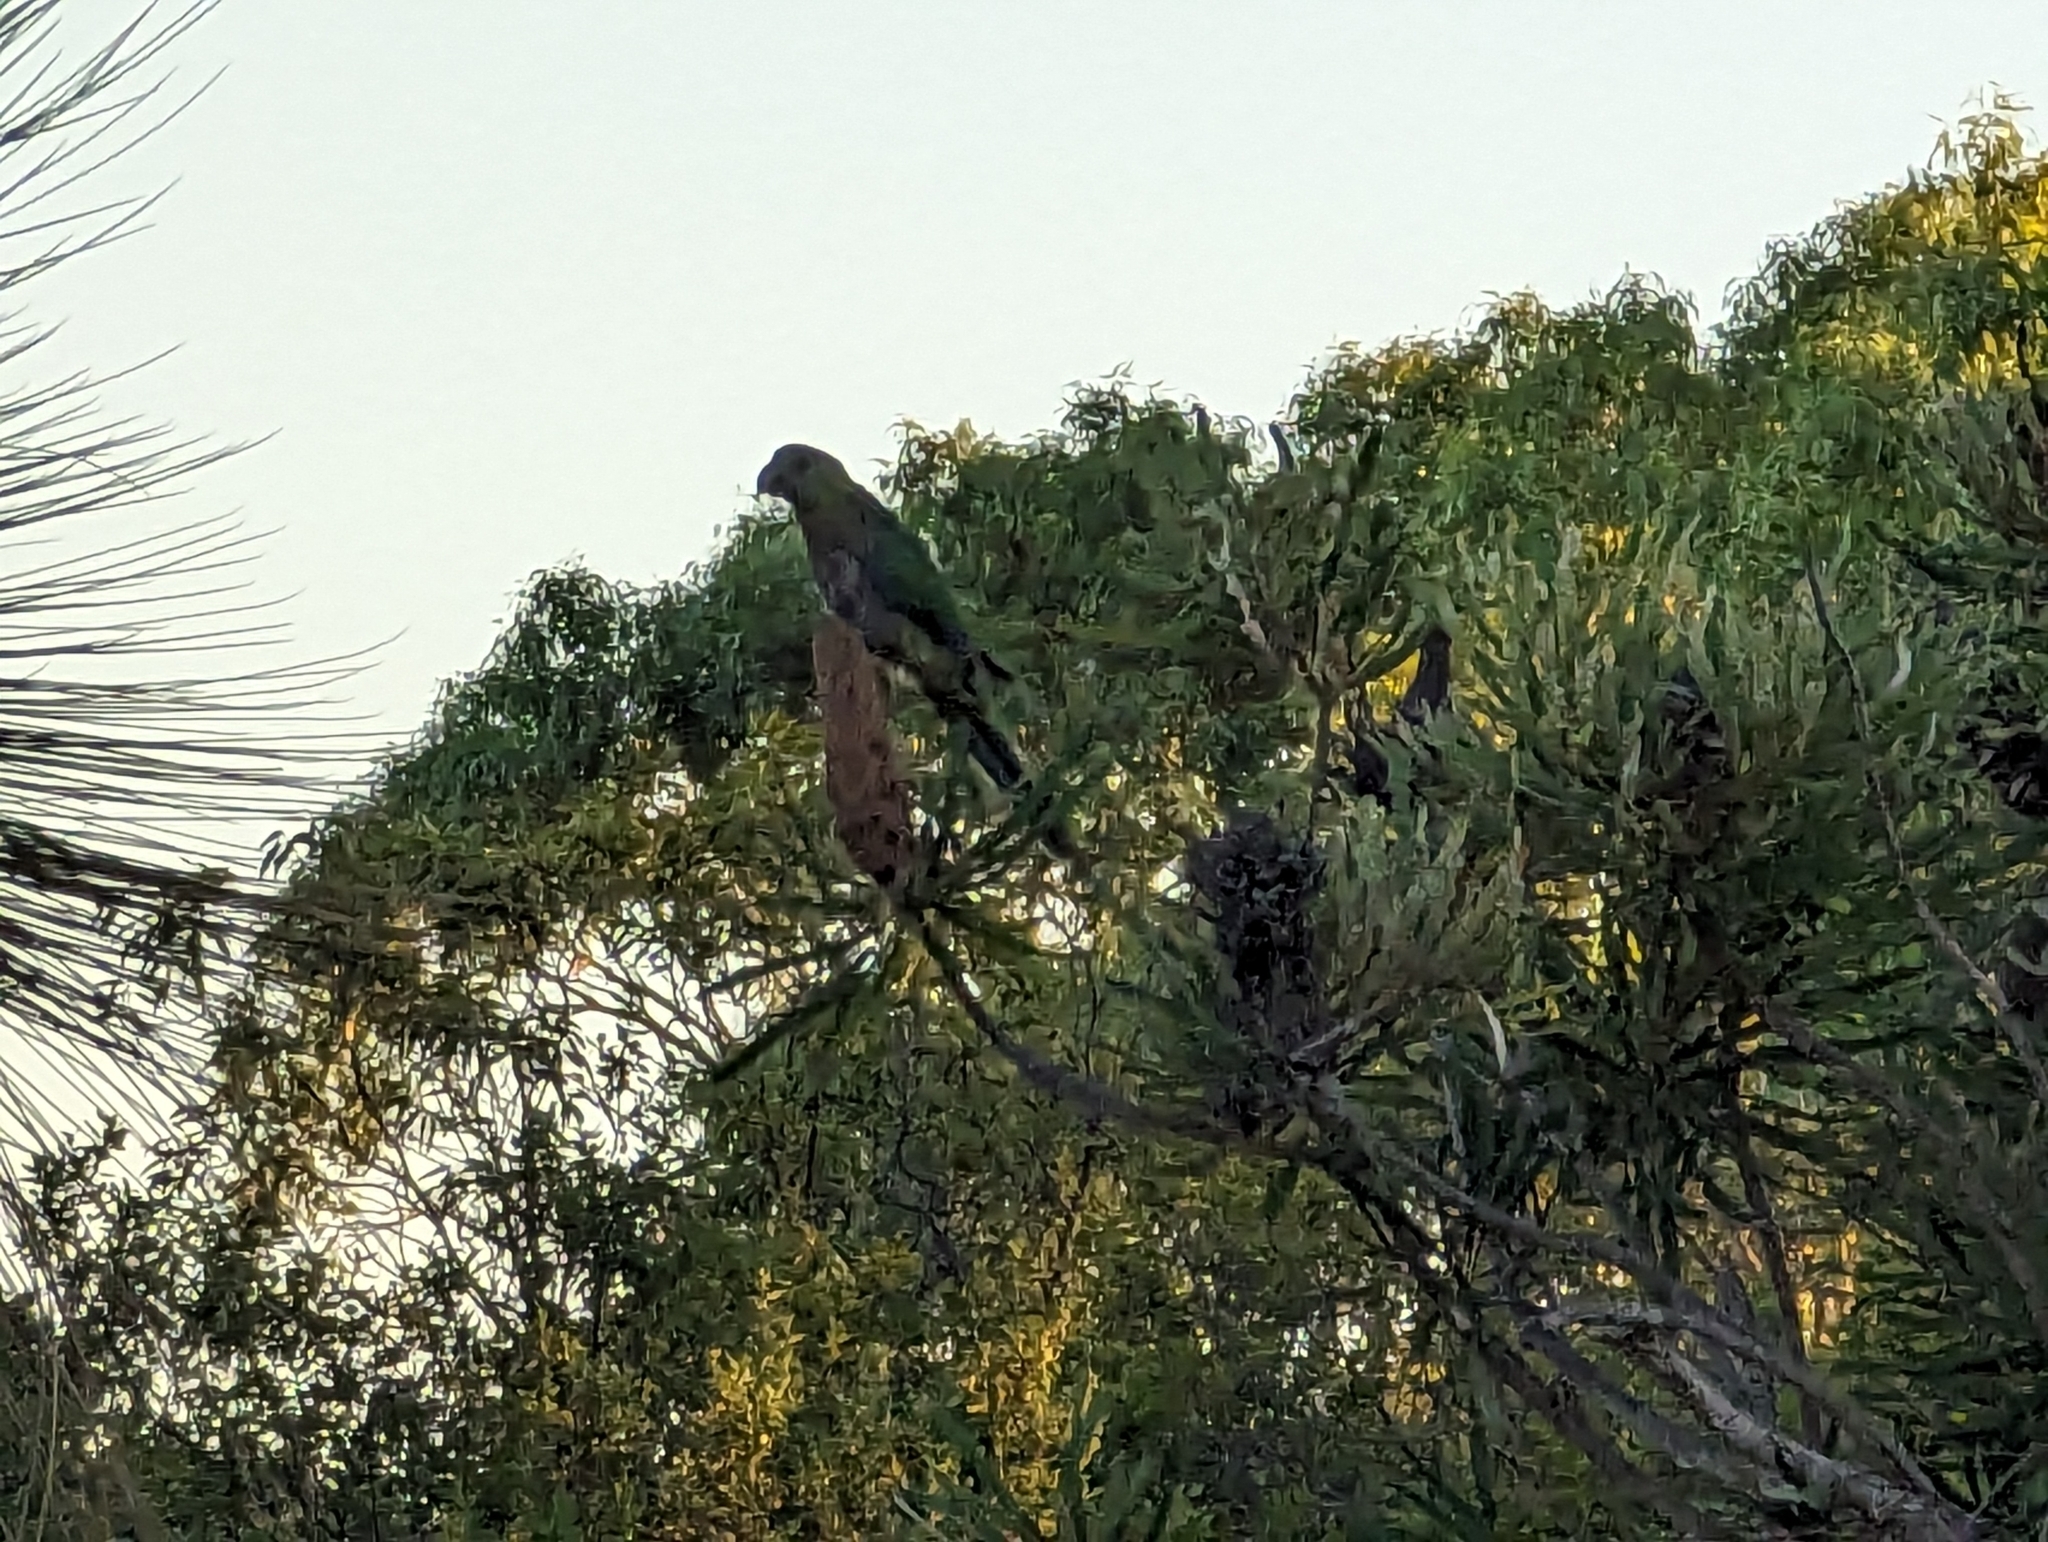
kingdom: Animalia
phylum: Chordata
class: Aves
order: Psittaciformes
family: Psittacidae
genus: Purpureicephalus
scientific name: Purpureicephalus spurius
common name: Red-capped parrot
